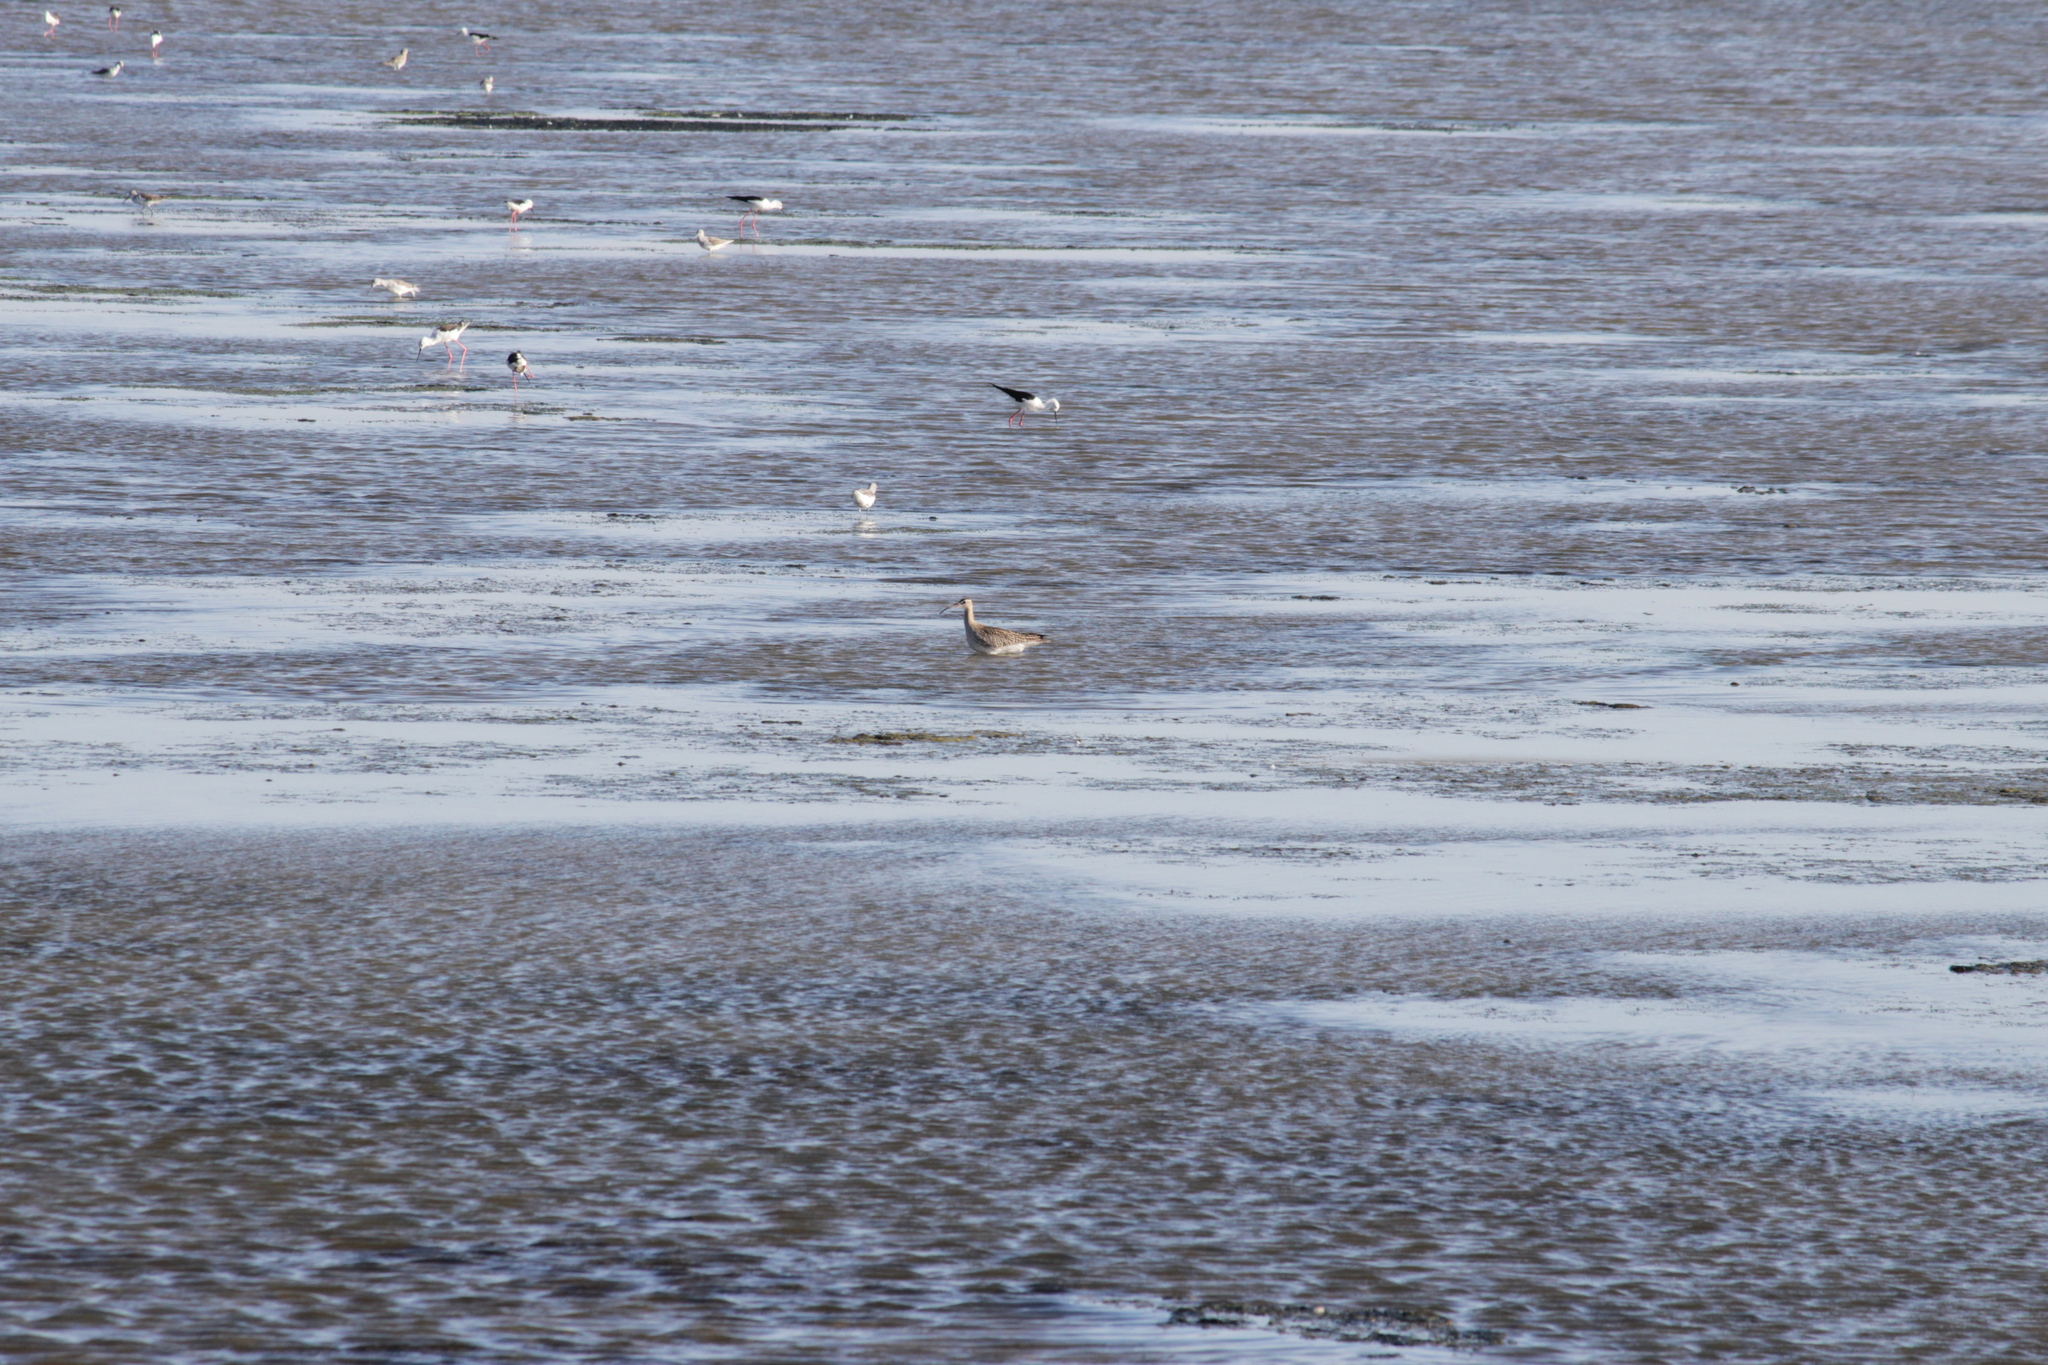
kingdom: Animalia
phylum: Chordata
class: Aves
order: Charadriiformes
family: Scolopacidae
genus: Numenius
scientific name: Numenius phaeopus
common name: Whimbrel
